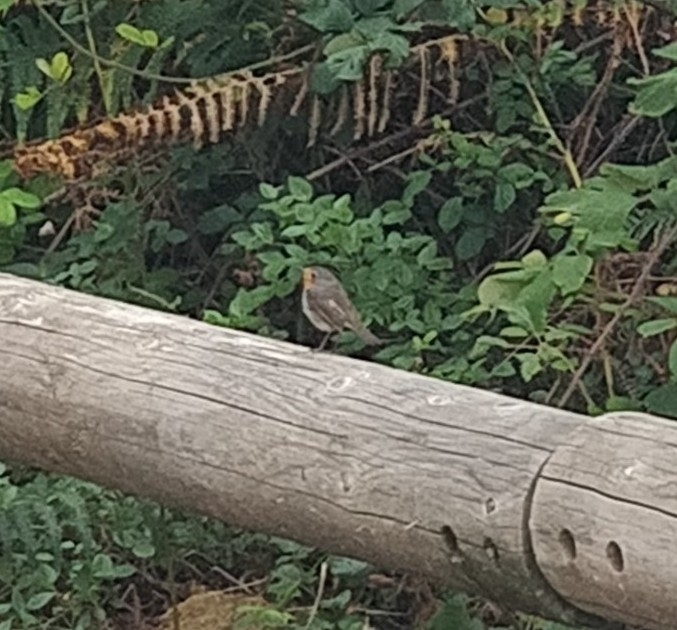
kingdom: Animalia
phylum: Chordata
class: Aves
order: Passeriformes
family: Muscicapidae
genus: Erithacus
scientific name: Erithacus rubecula
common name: European robin
